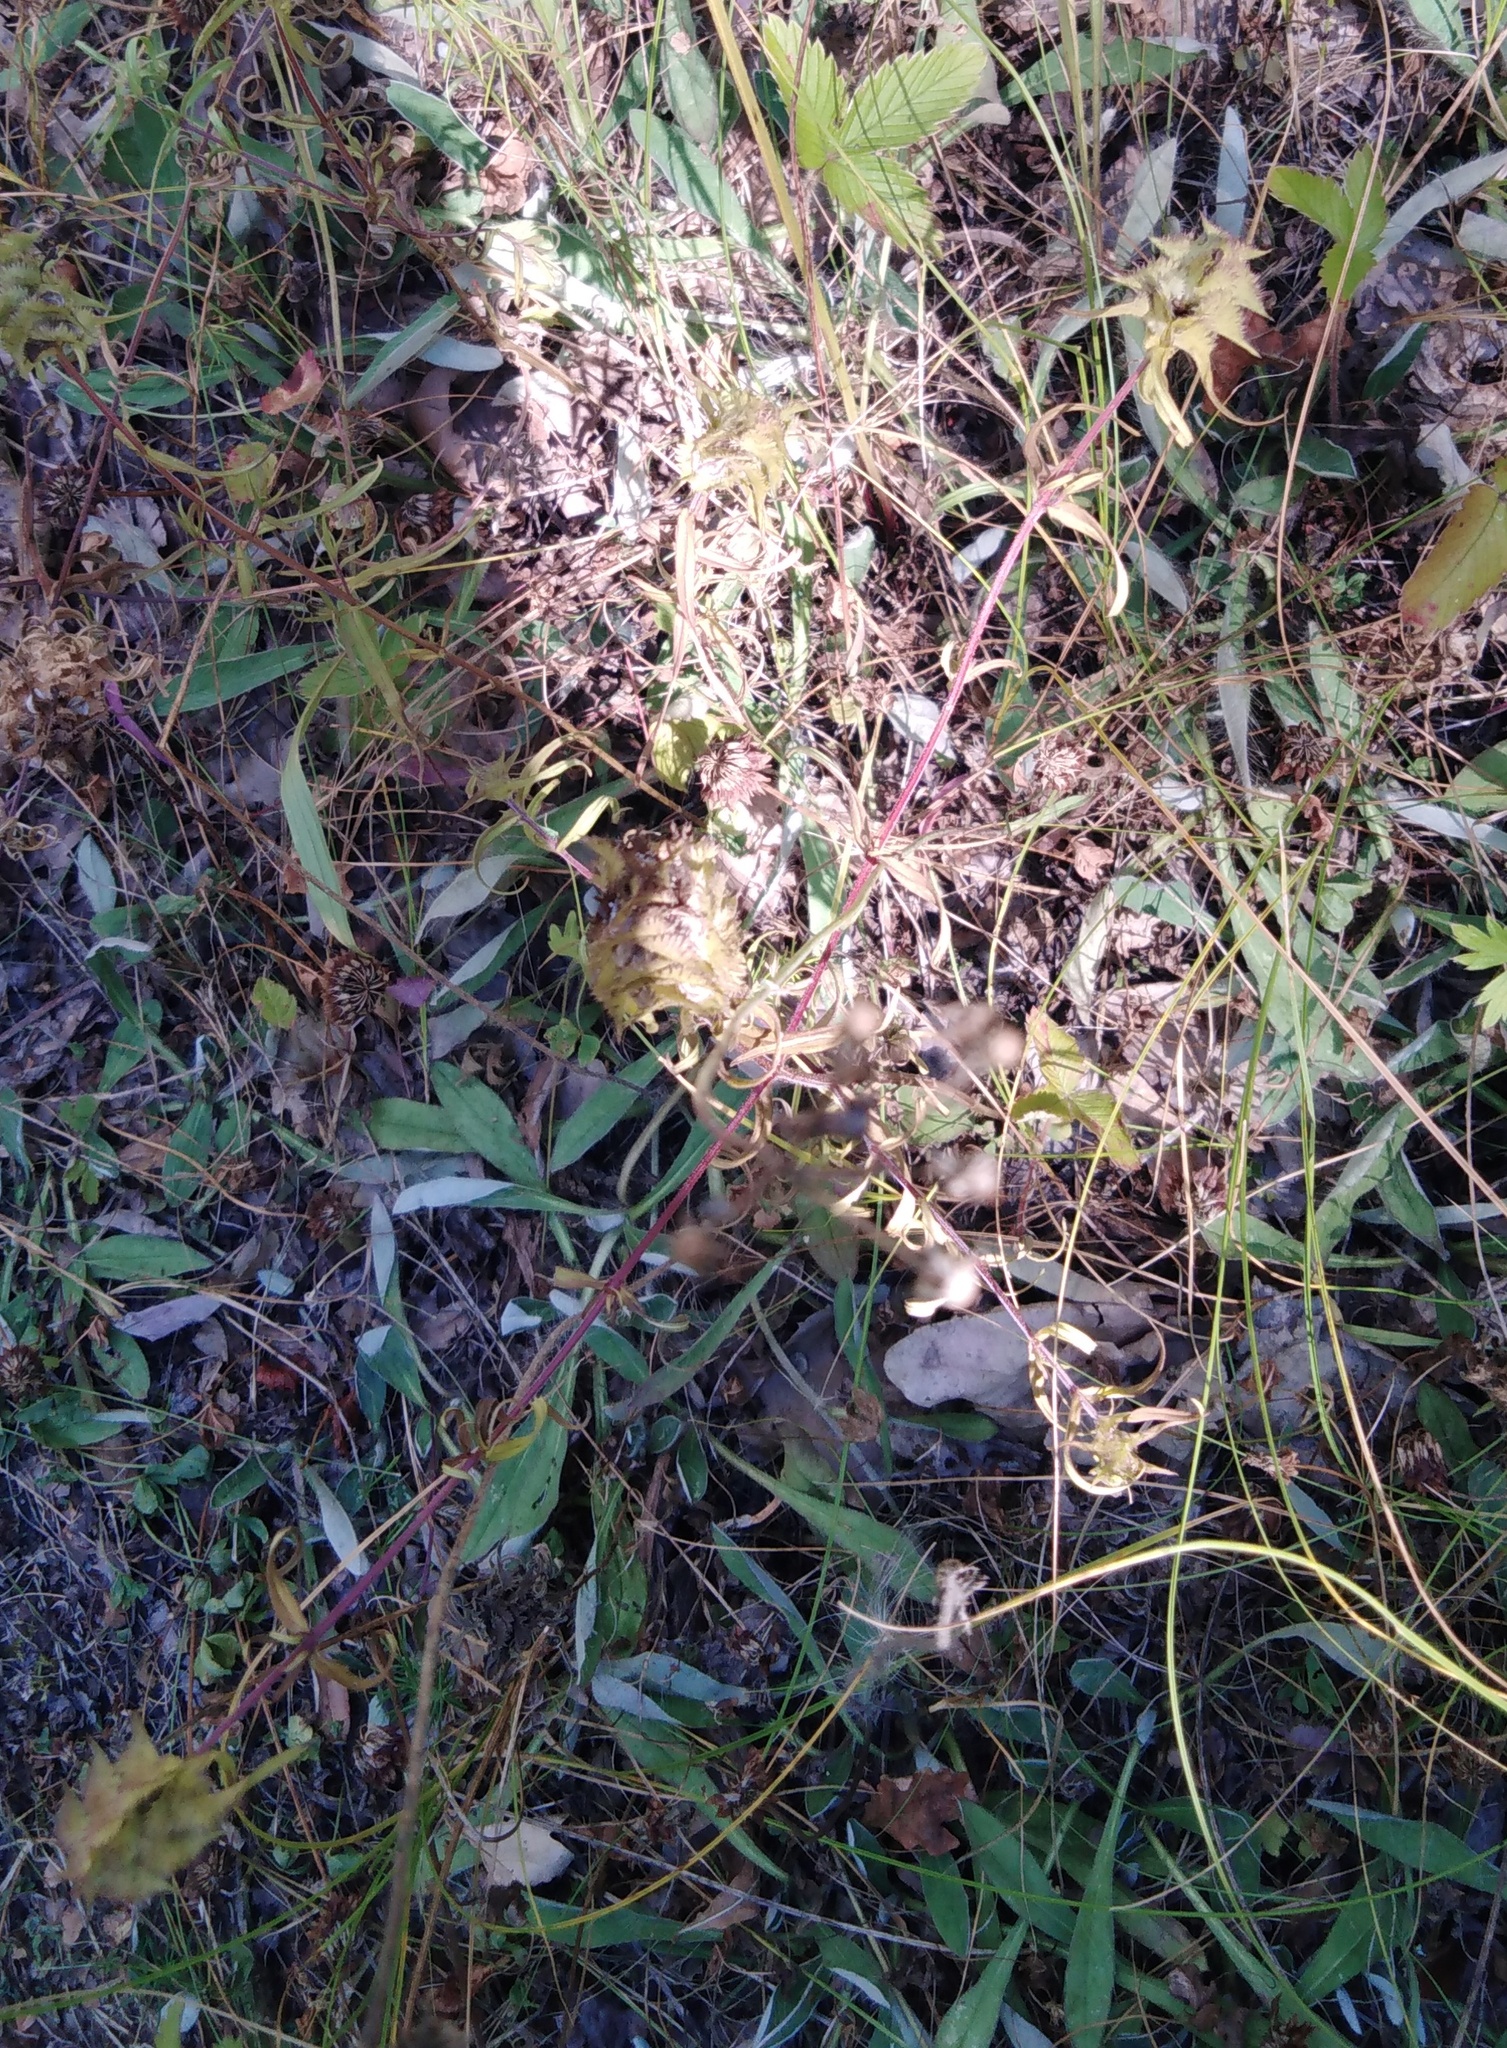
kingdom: Plantae
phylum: Tracheophyta
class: Magnoliopsida
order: Lamiales
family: Orobanchaceae
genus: Melampyrum
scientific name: Melampyrum cristatum
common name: Crested cow-wheat
